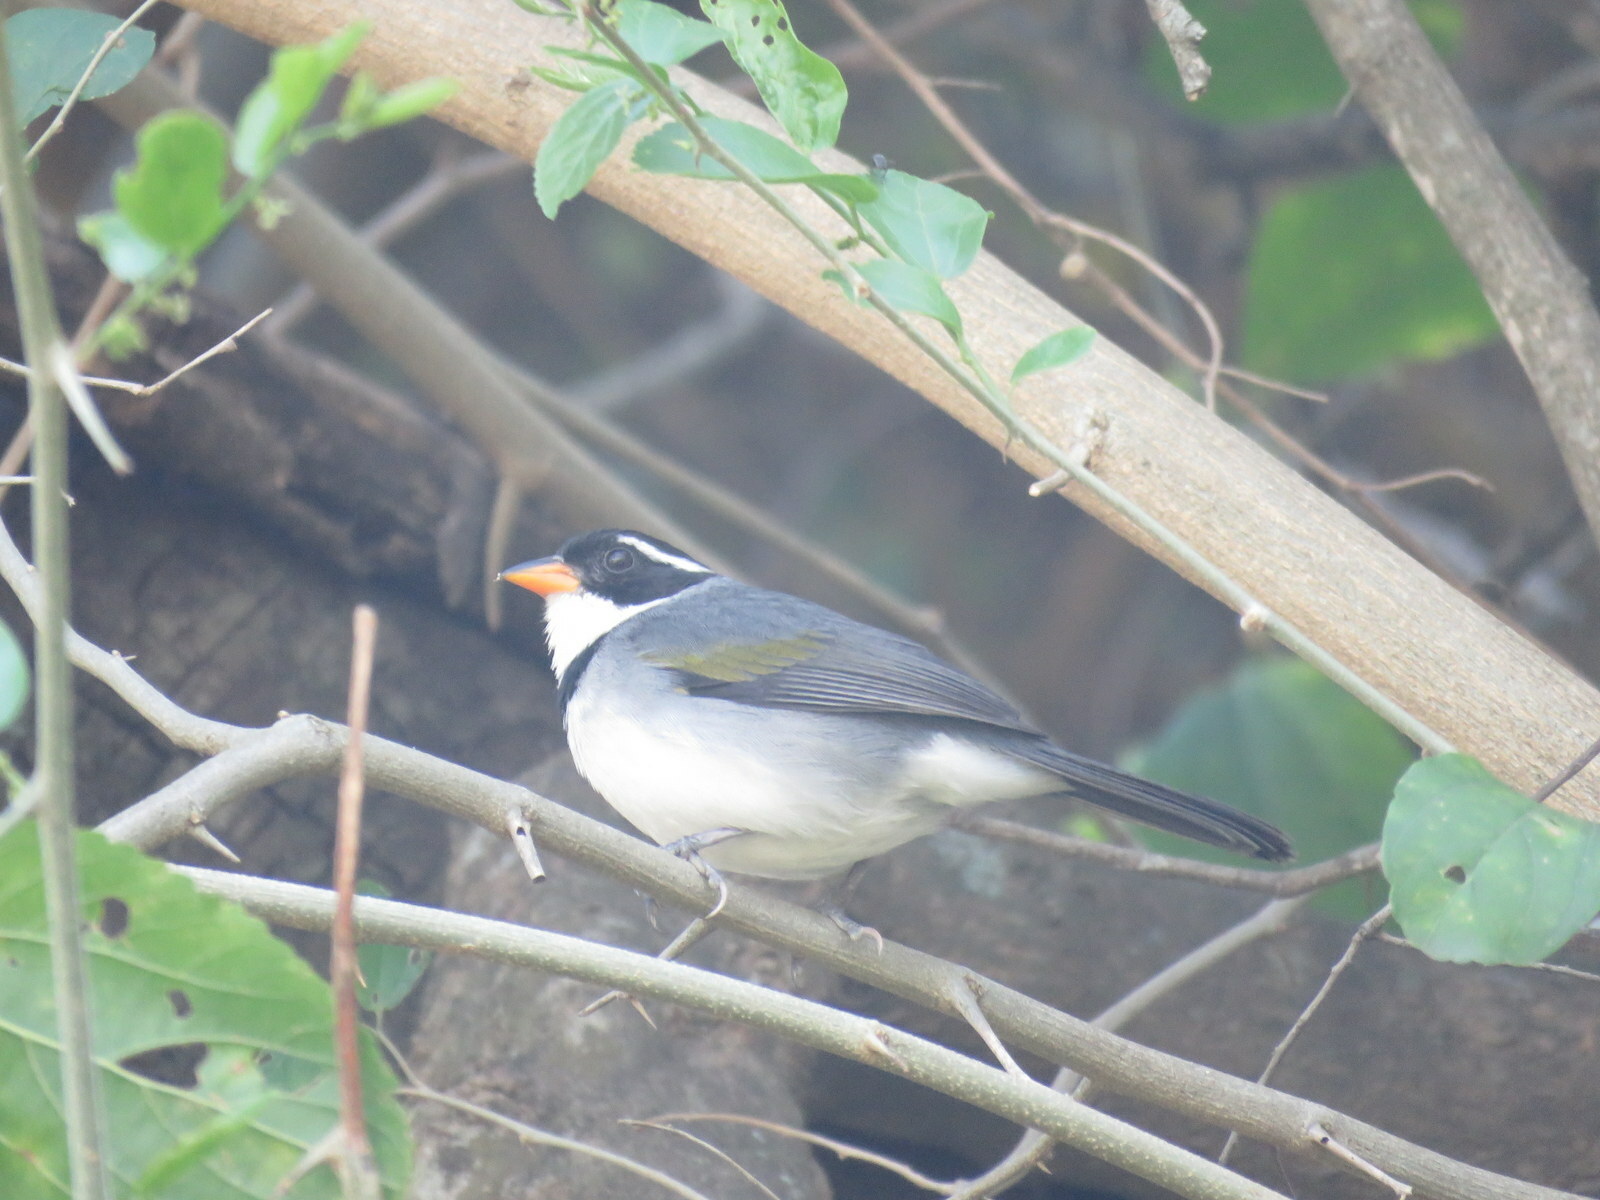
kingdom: Animalia
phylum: Chordata
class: Aves
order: Passeriformes
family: Passerellidae
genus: Arremon
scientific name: Arremon flavirostris
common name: Saffron-billed sparrow
